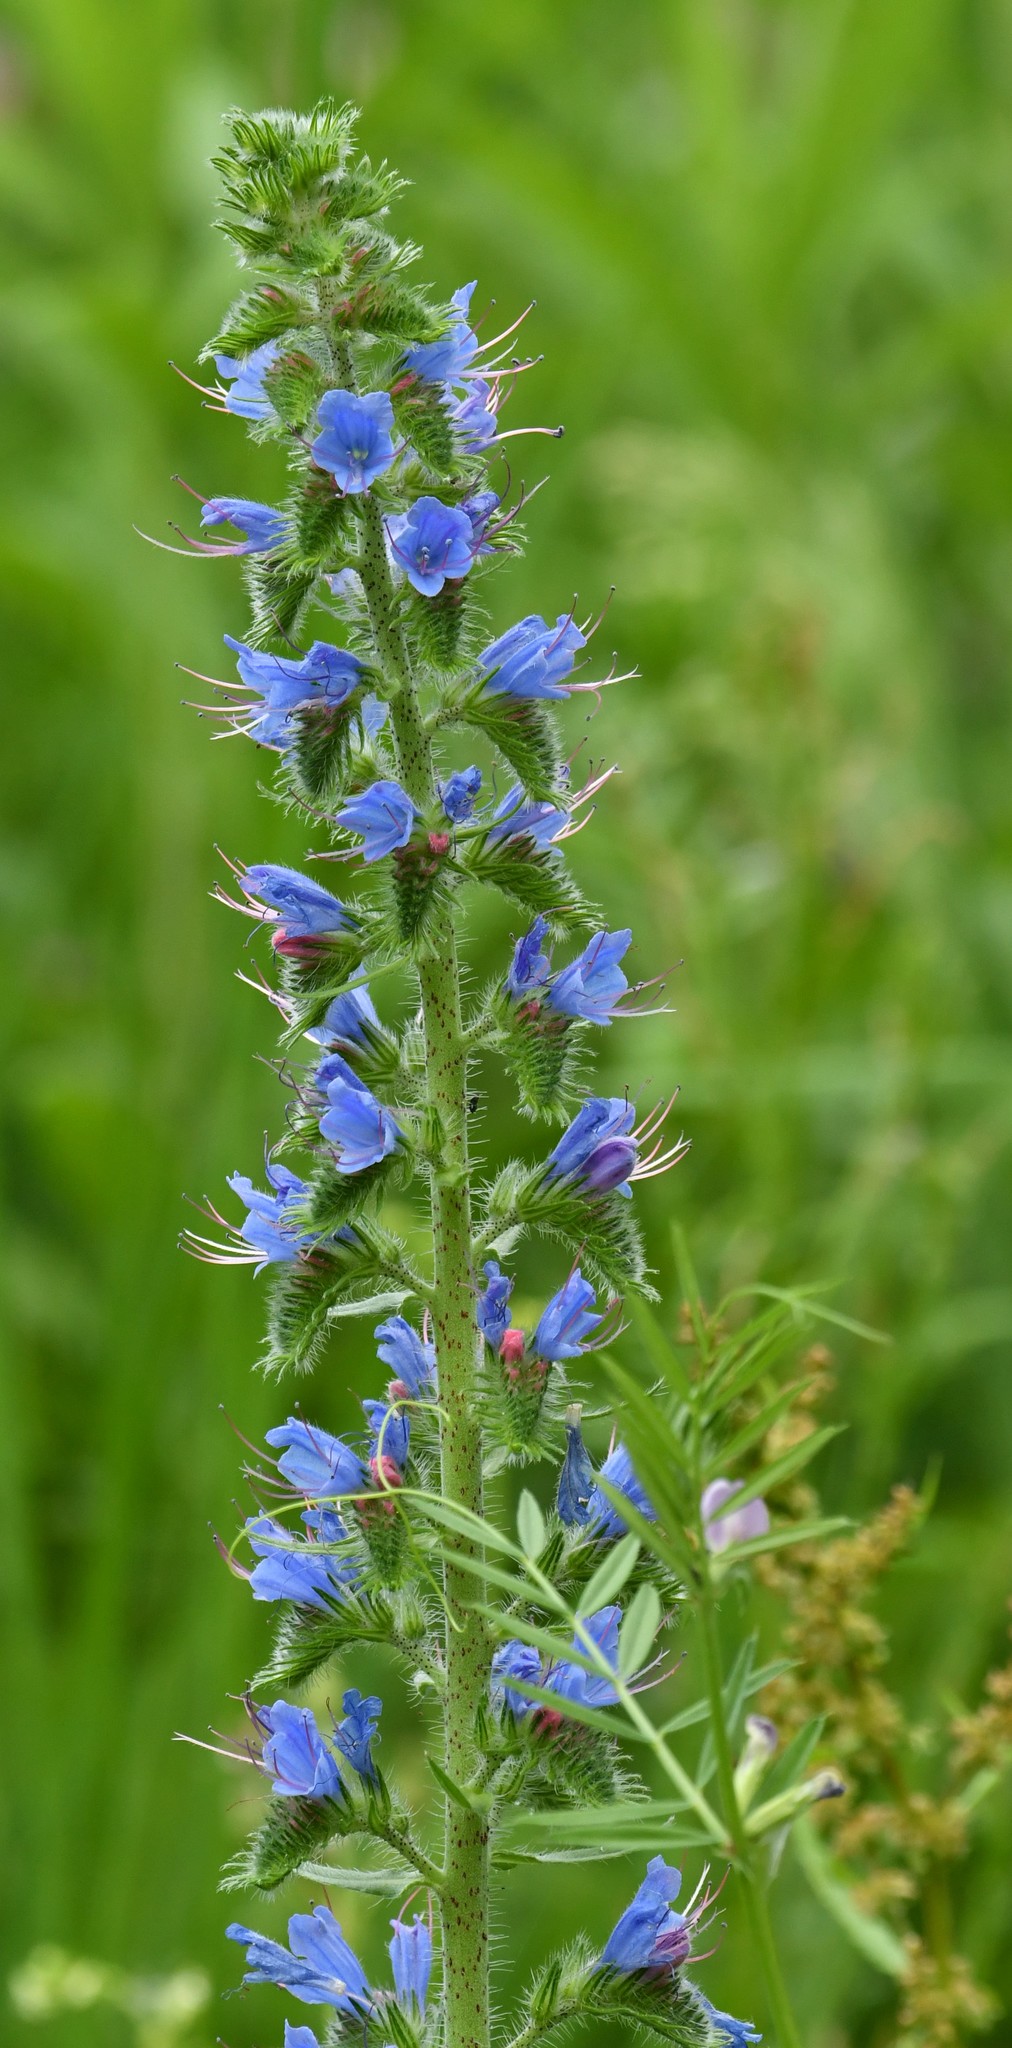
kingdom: Plantae
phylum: Tracheophyta
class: Magnoliopsida
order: Boraginales
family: Boraginaceae
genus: Echium
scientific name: Echium vulgare
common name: Common viper's bugloss
